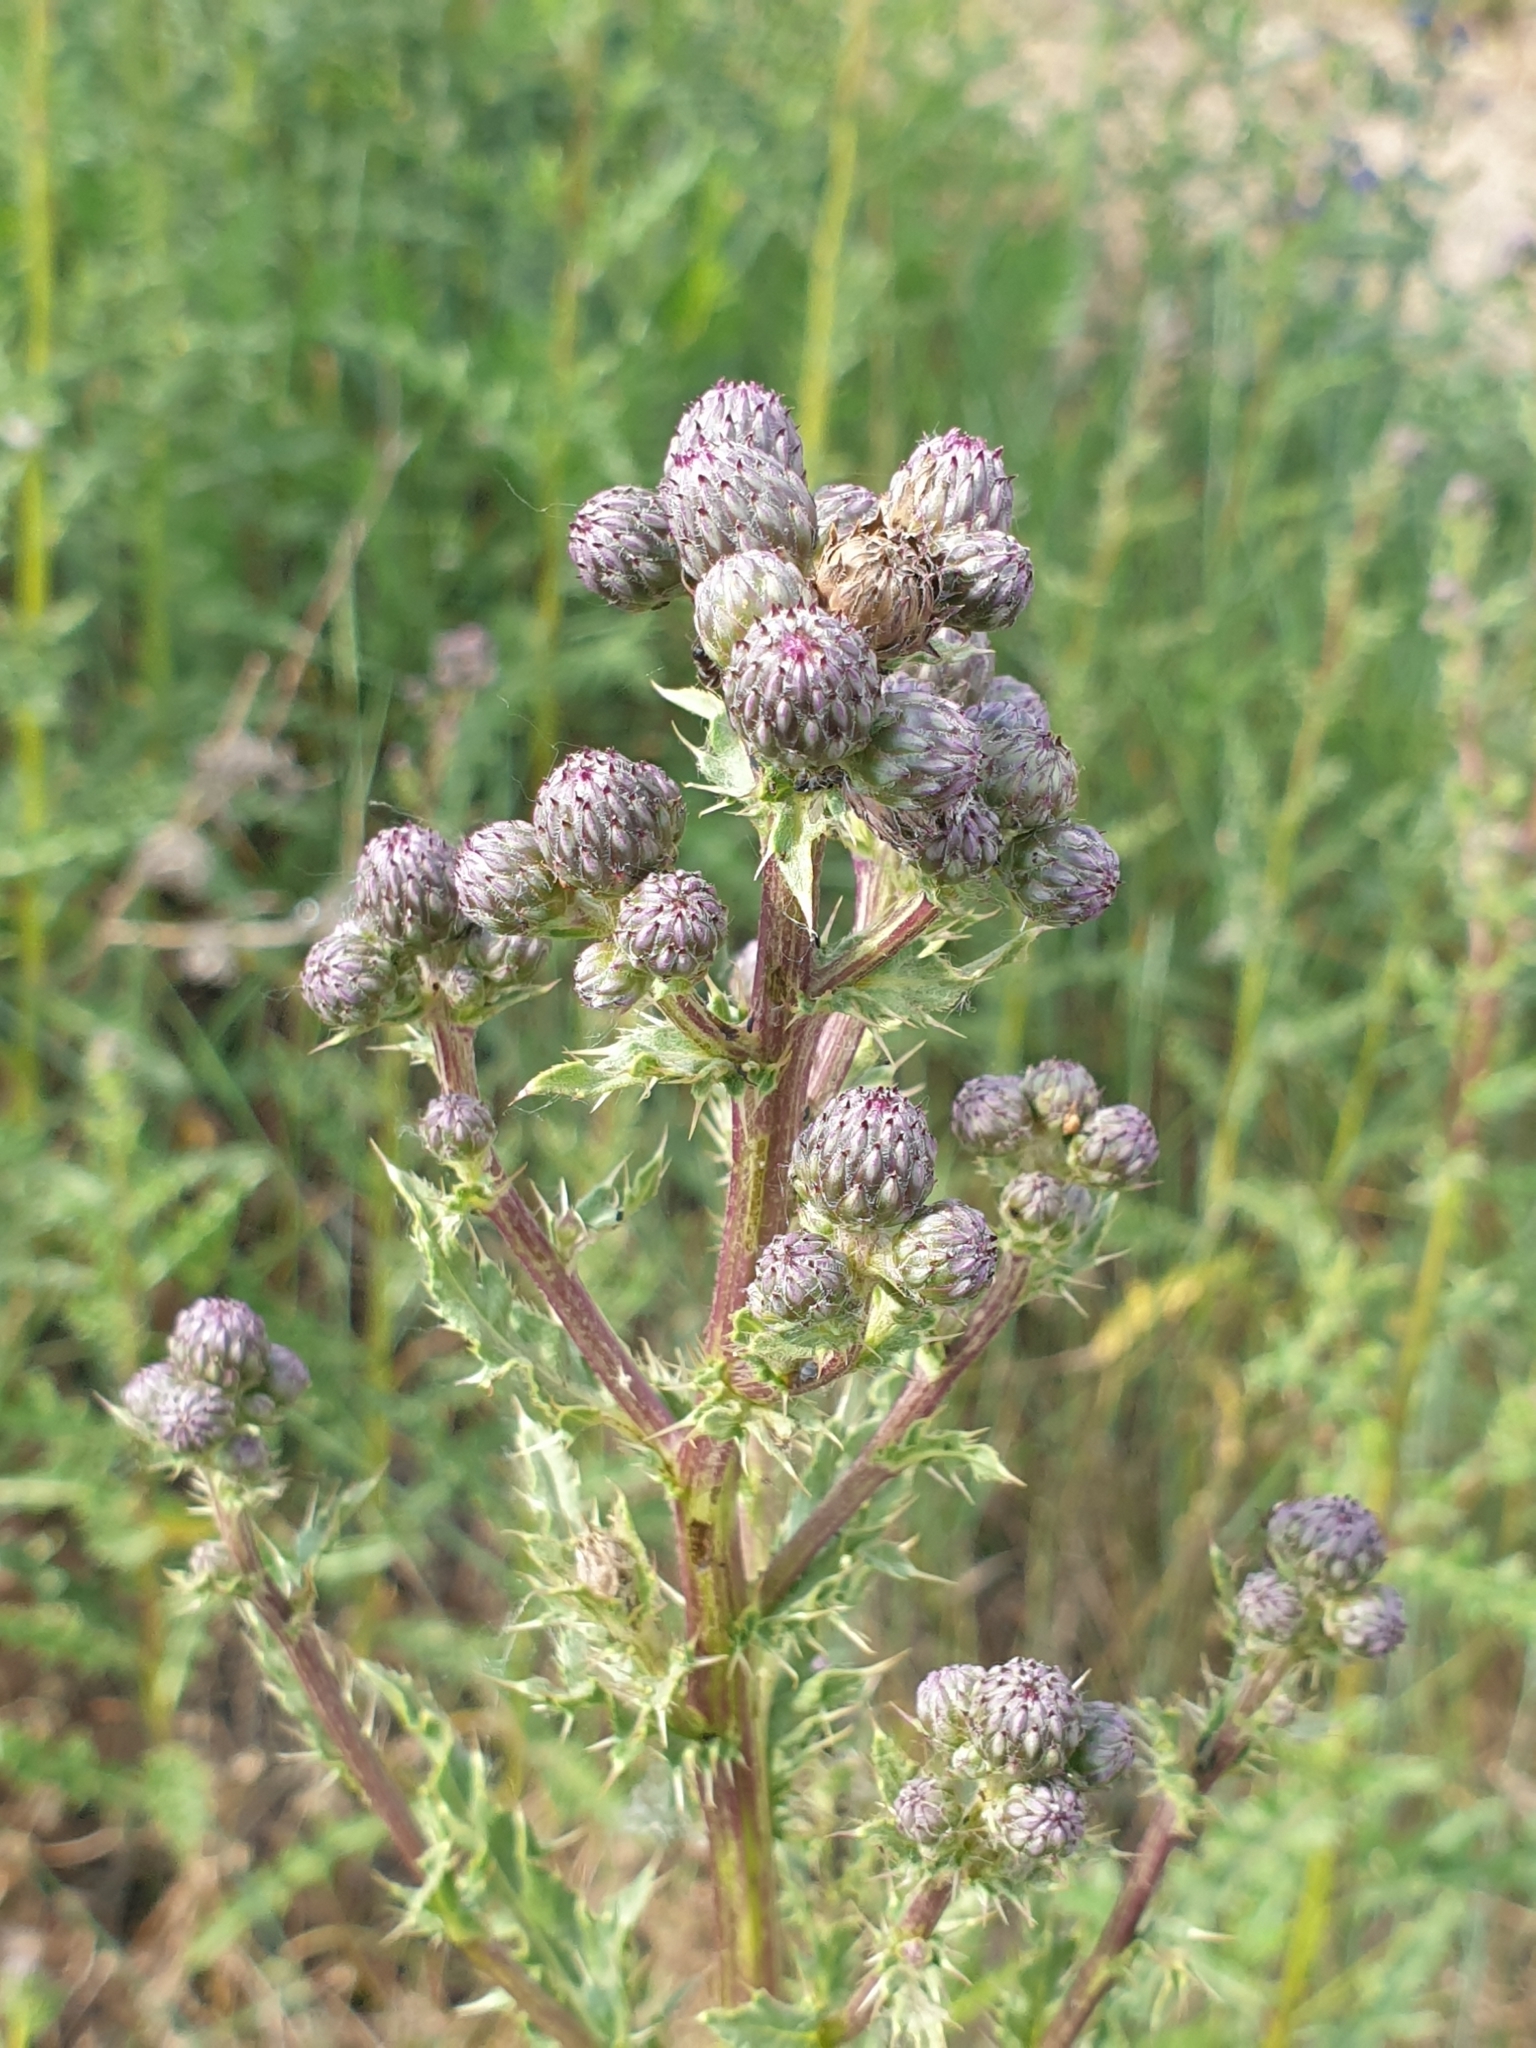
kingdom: Plantae
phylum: Tracheophyta
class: Magnoliopsida
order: Asterales
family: Asteraceae
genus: Cirsium
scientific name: Cirsium arvense
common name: Creeping thistle
